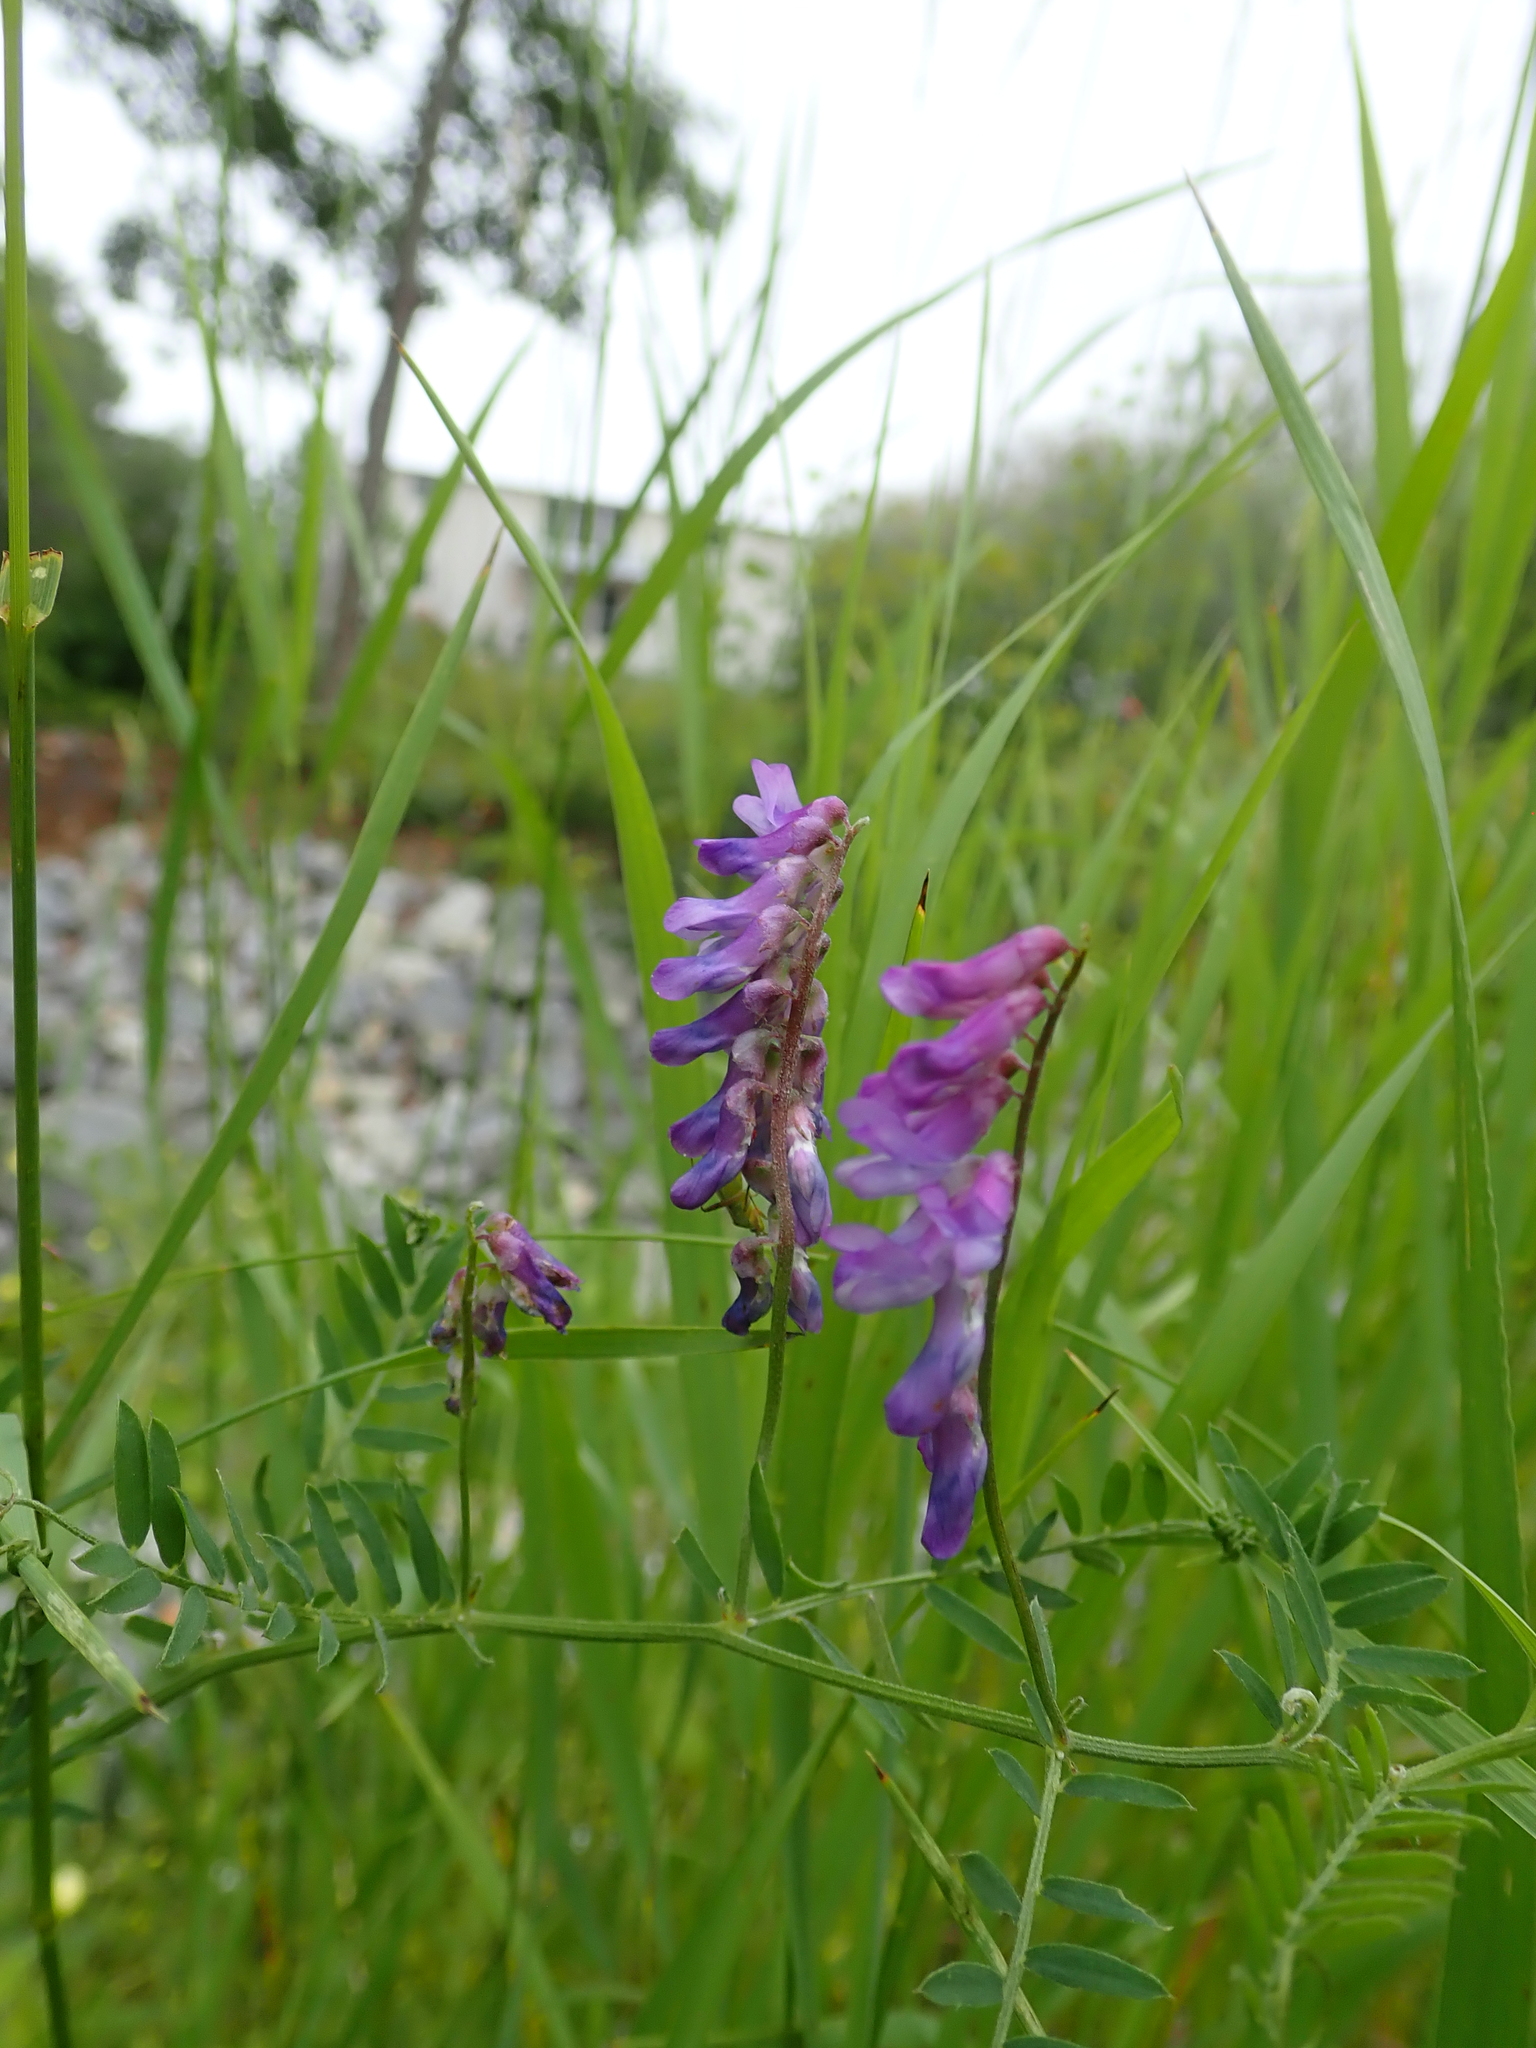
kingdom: Plantae
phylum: Tracheophyta
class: Magnoliopsida
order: Fabales
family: Fabaceae
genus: Vicia
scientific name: Vicia cracca
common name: Bird vetch
